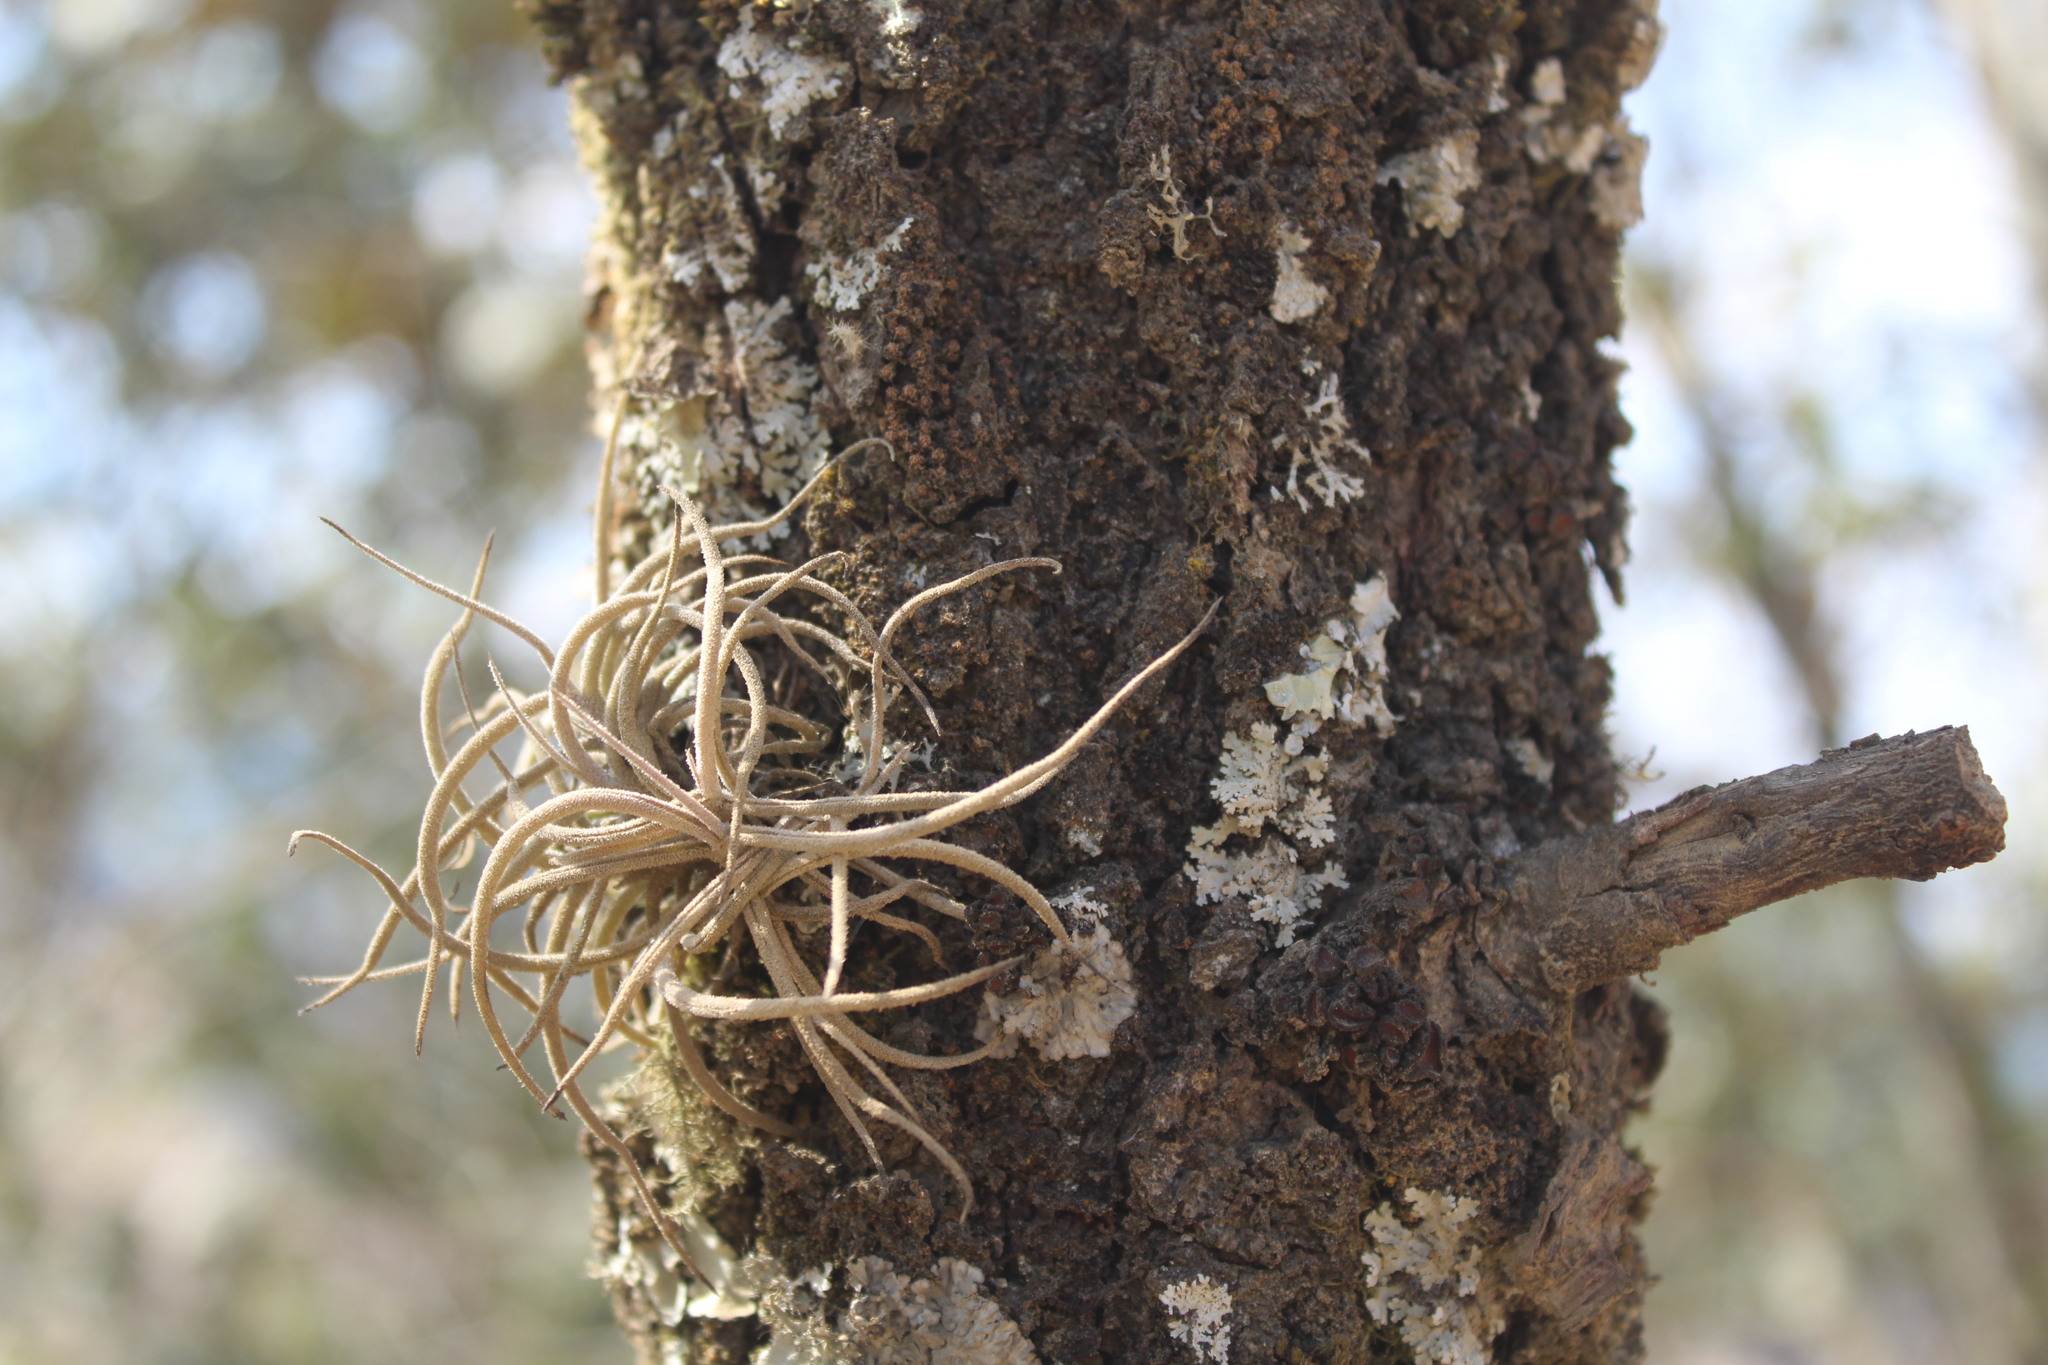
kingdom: Plantae
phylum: Tracheophyta
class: Liliopsida
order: Poales
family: Bromeliaceae
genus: Tillandsia
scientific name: Tillandsia recurvata
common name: Small ballmoss
